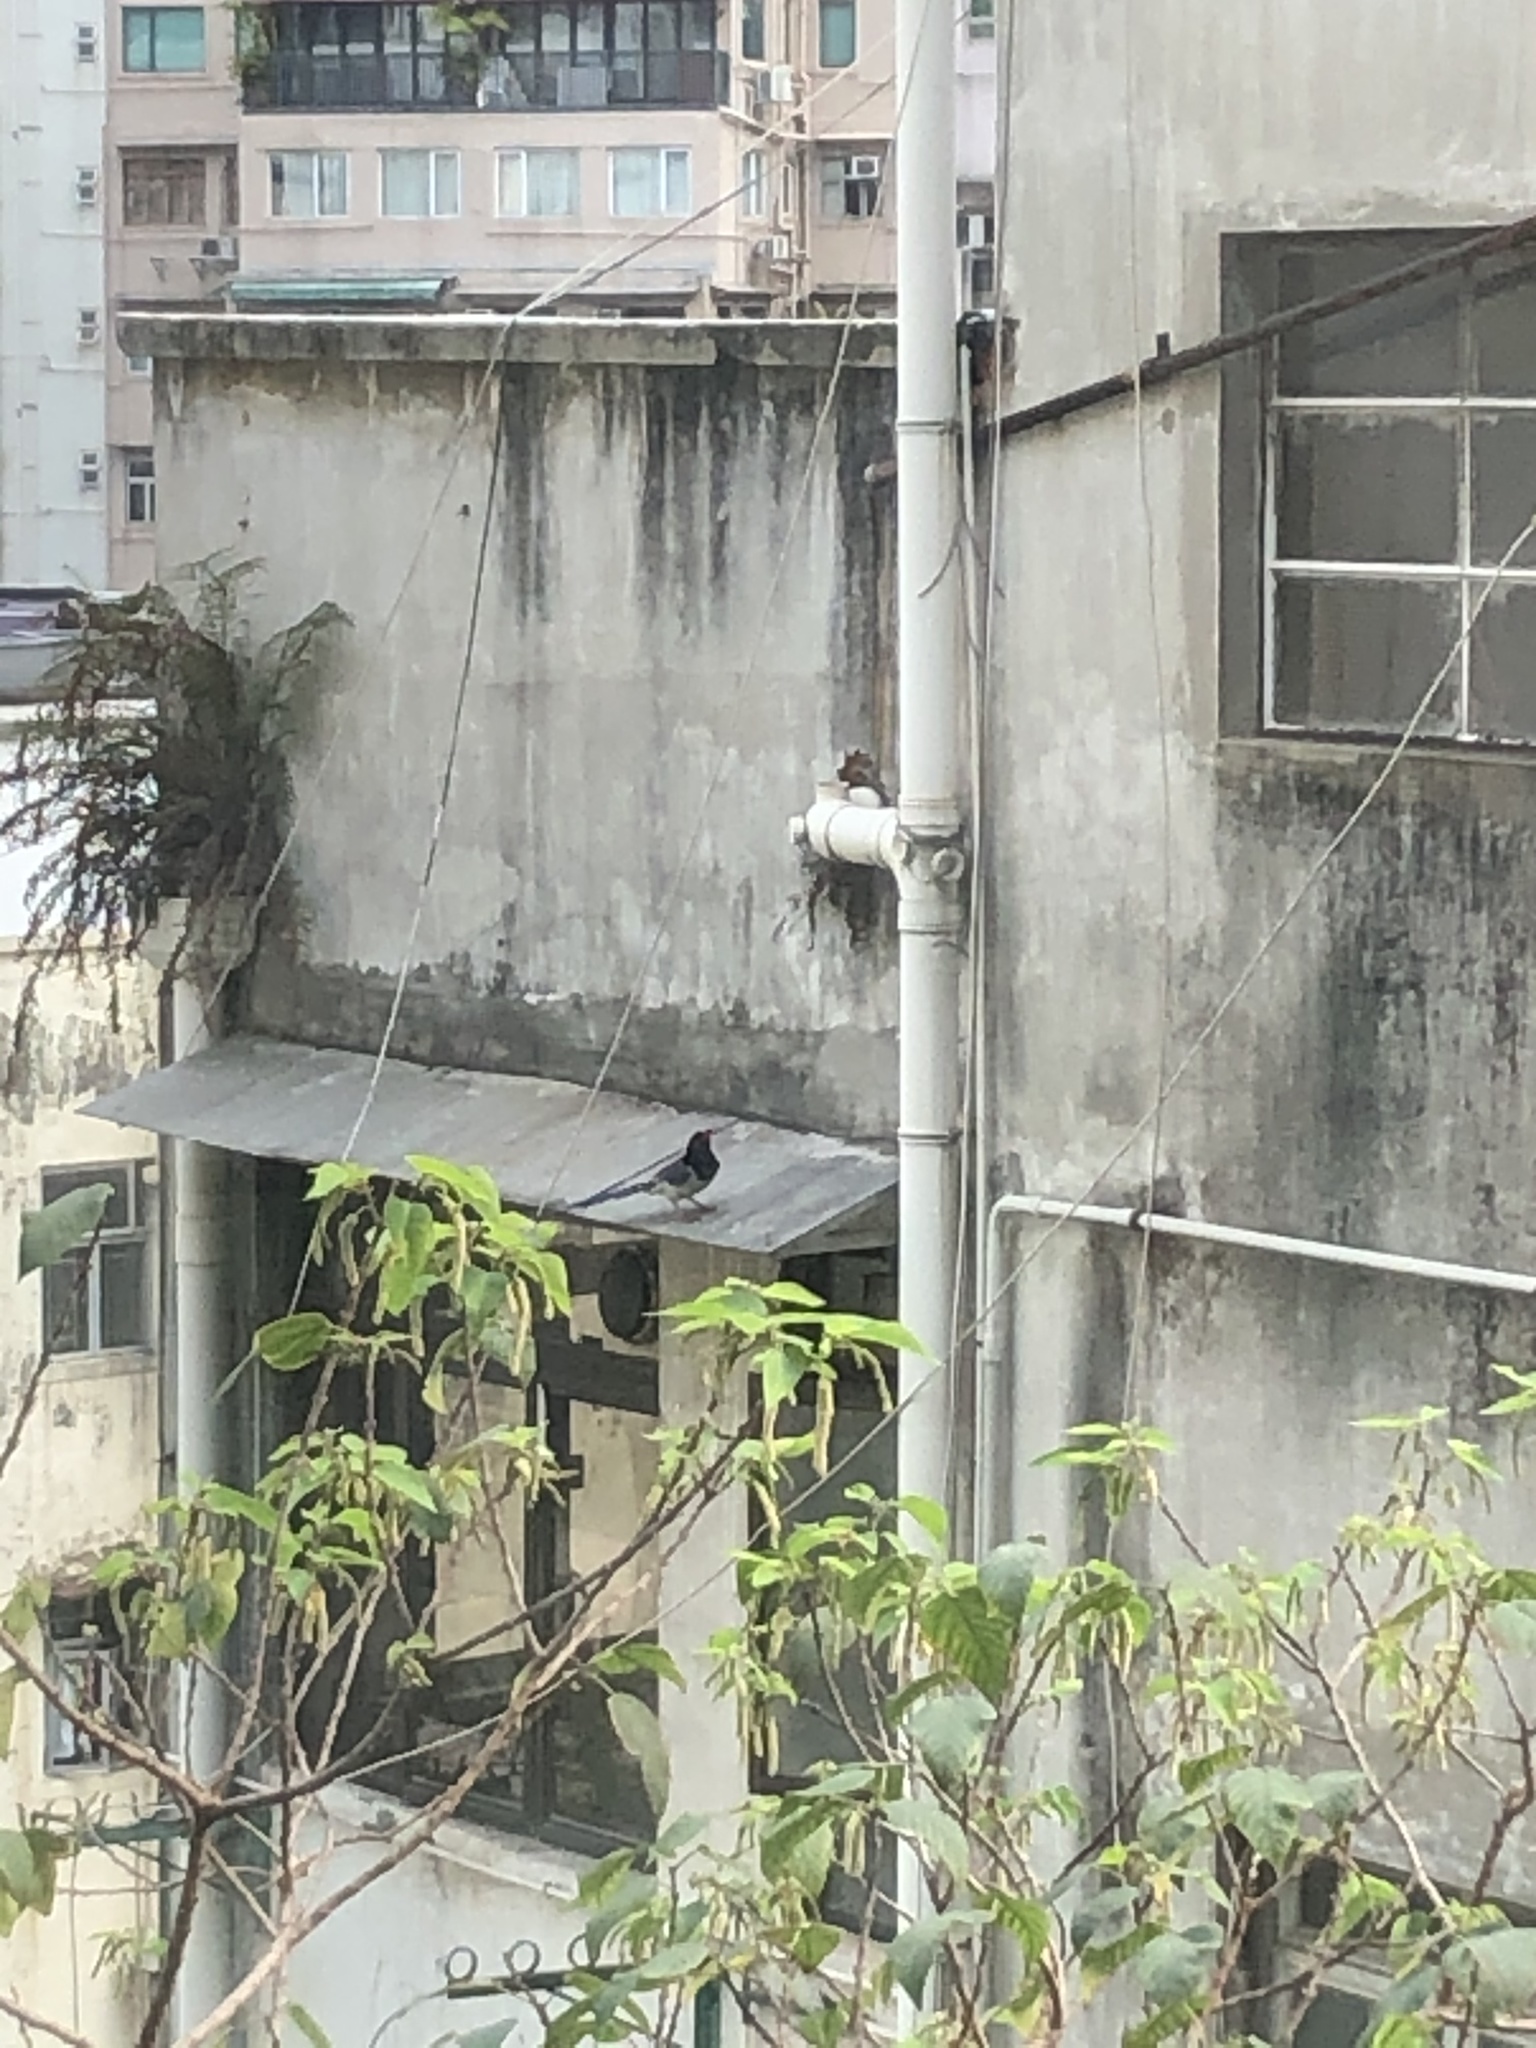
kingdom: Animalia
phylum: Chordata
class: Aves
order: Passeriformes
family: Corvidae
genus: Urocissa
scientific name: Urocissa erythroryncha
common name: Red-billed blue magpie
